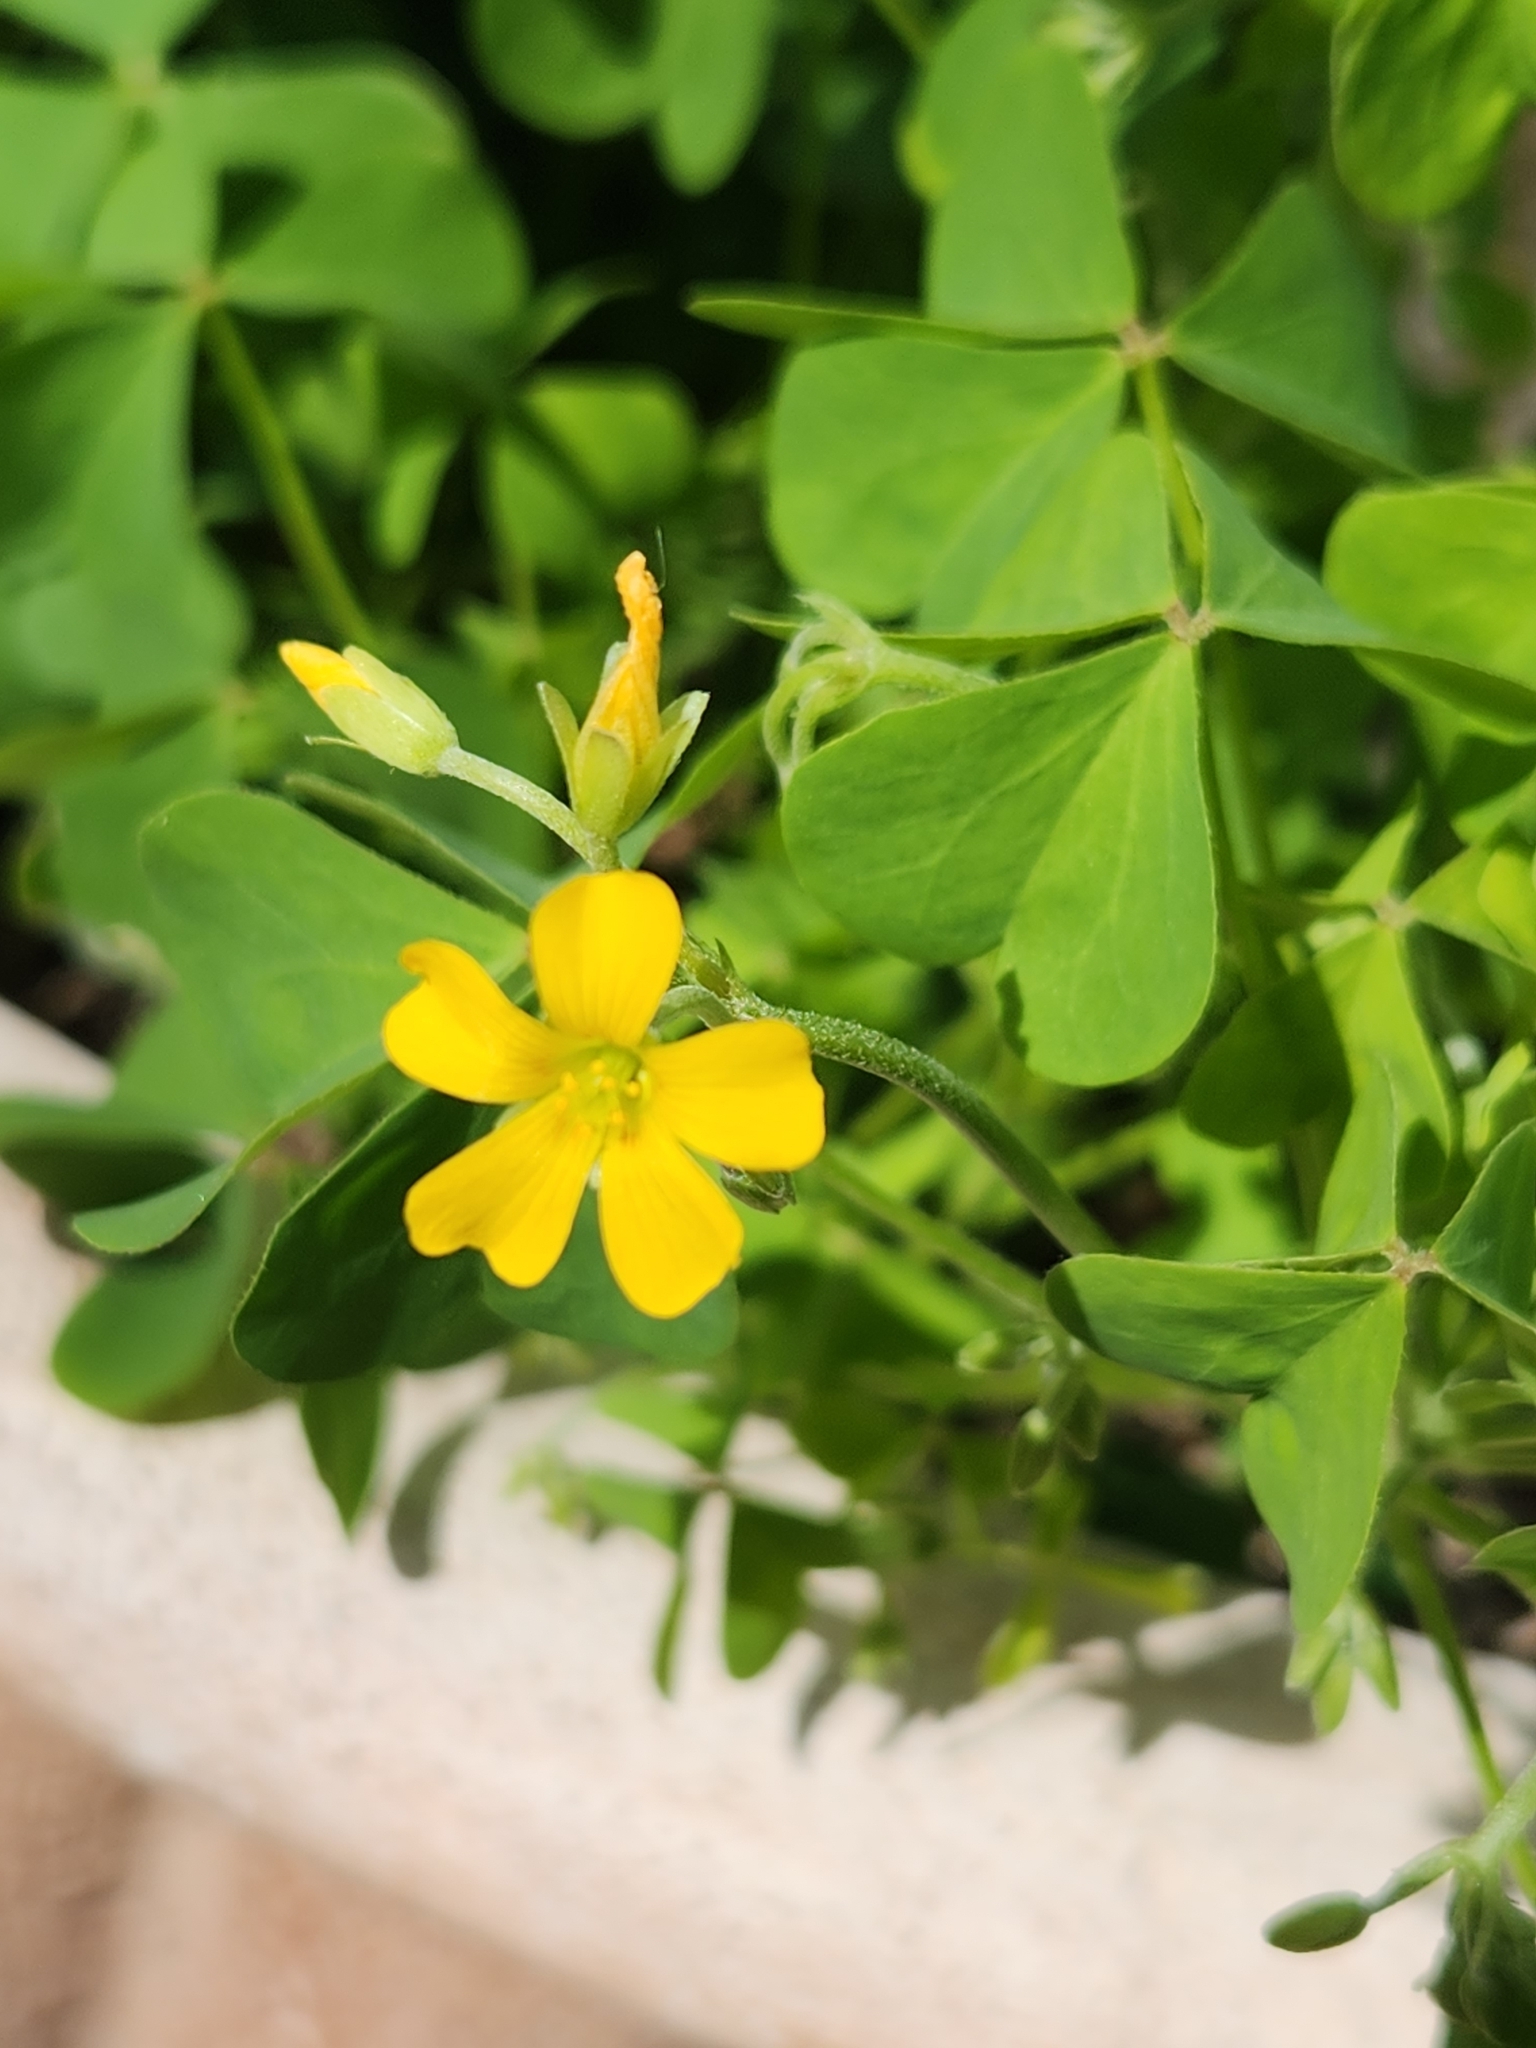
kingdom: Plantae
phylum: Tracheophyta
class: Magnoliopsida
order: Oxalidales
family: Oxalidaceae
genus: Oxalis
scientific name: Oxalis corniculata
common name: Procumbent yellow-sorrel
